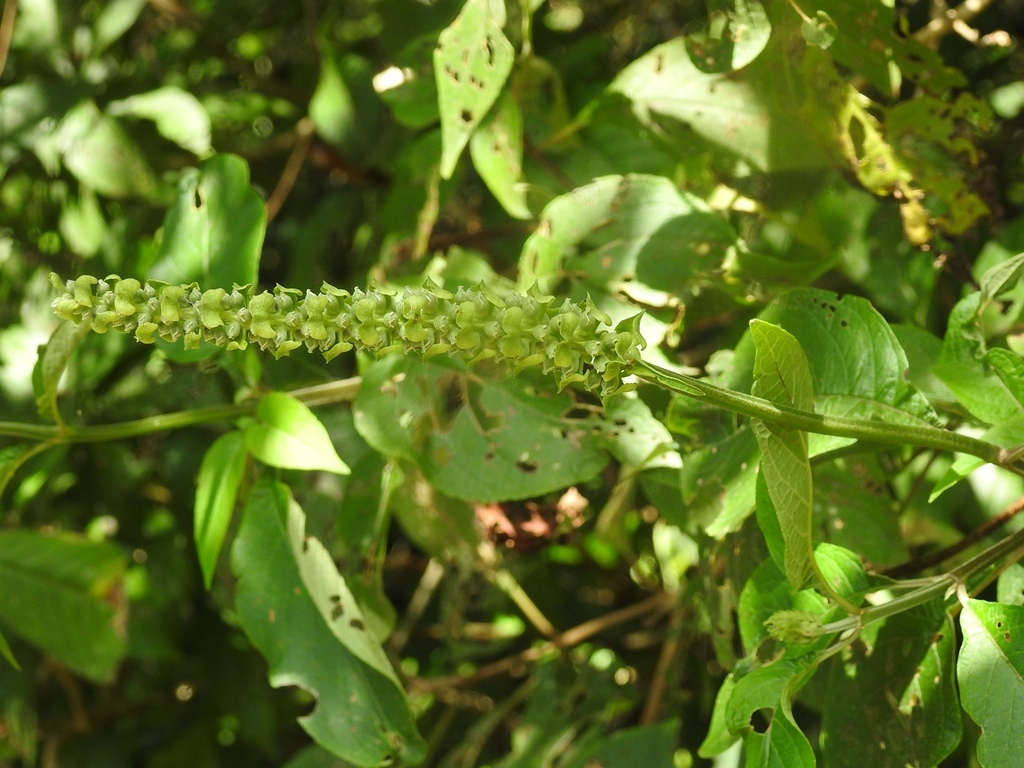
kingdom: Plantae
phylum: Tracheophyta
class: Magnoliopsida
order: Lamiales
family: Lamiaceae
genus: Catoferia
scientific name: Catoferia chiapensis
